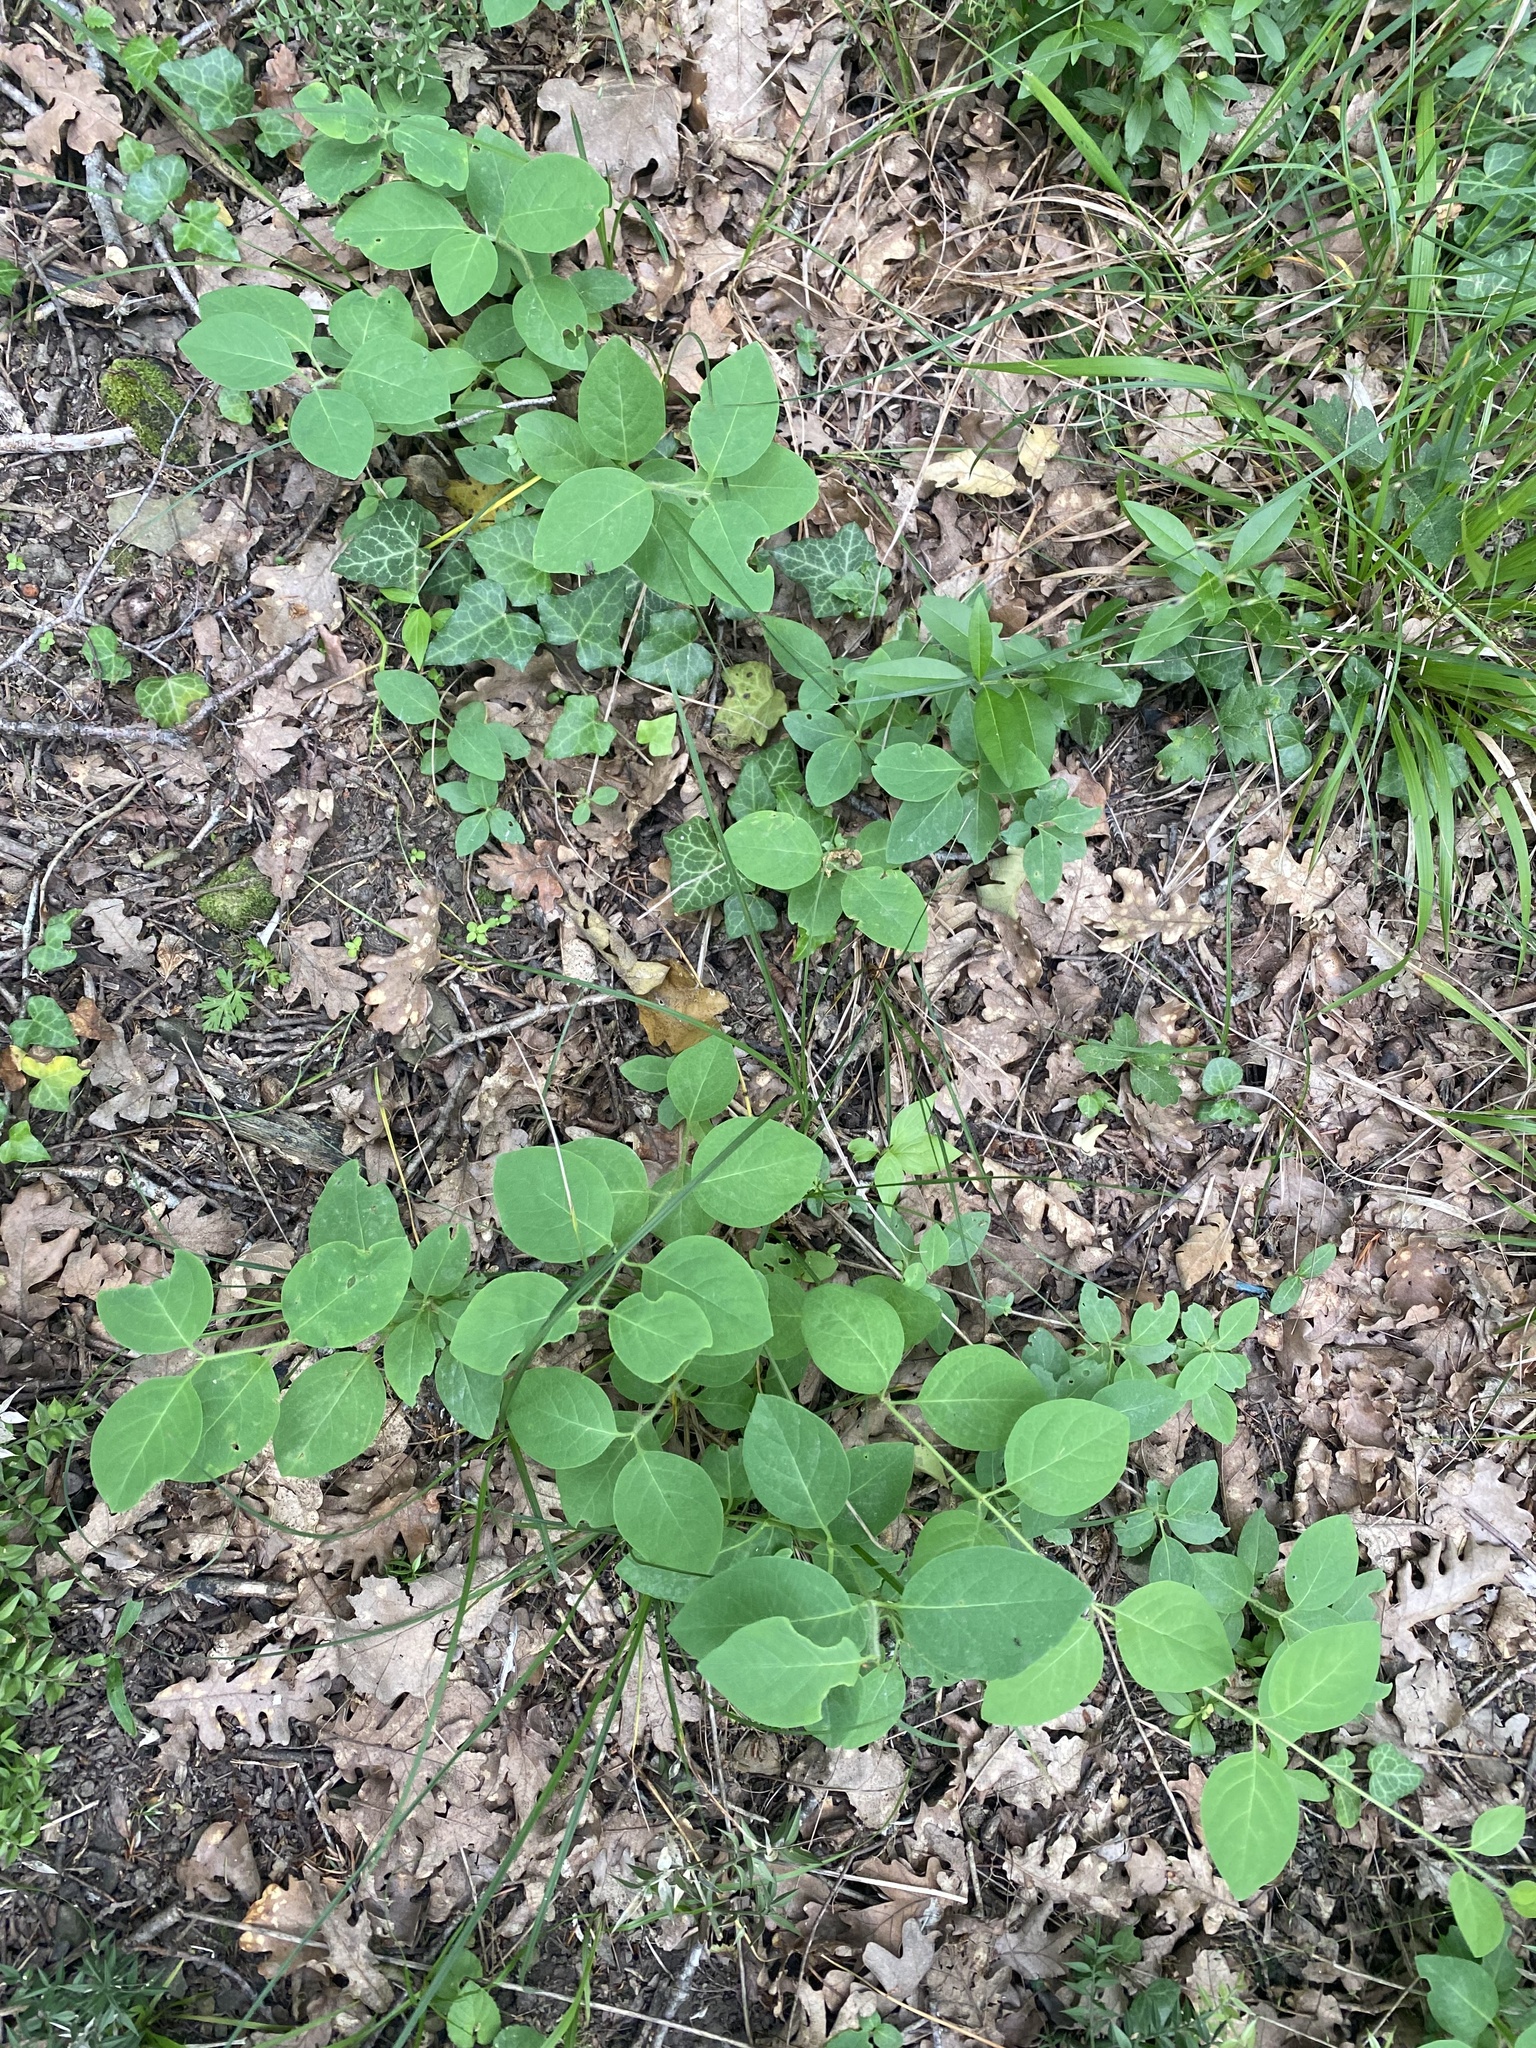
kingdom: Plantae
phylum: Tracheophyta
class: Magnoliopsida
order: Dipsacales
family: Caprifoliaceae
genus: Lonicera
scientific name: Lonicera caprifolium
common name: Perfoliate honeysuckle
